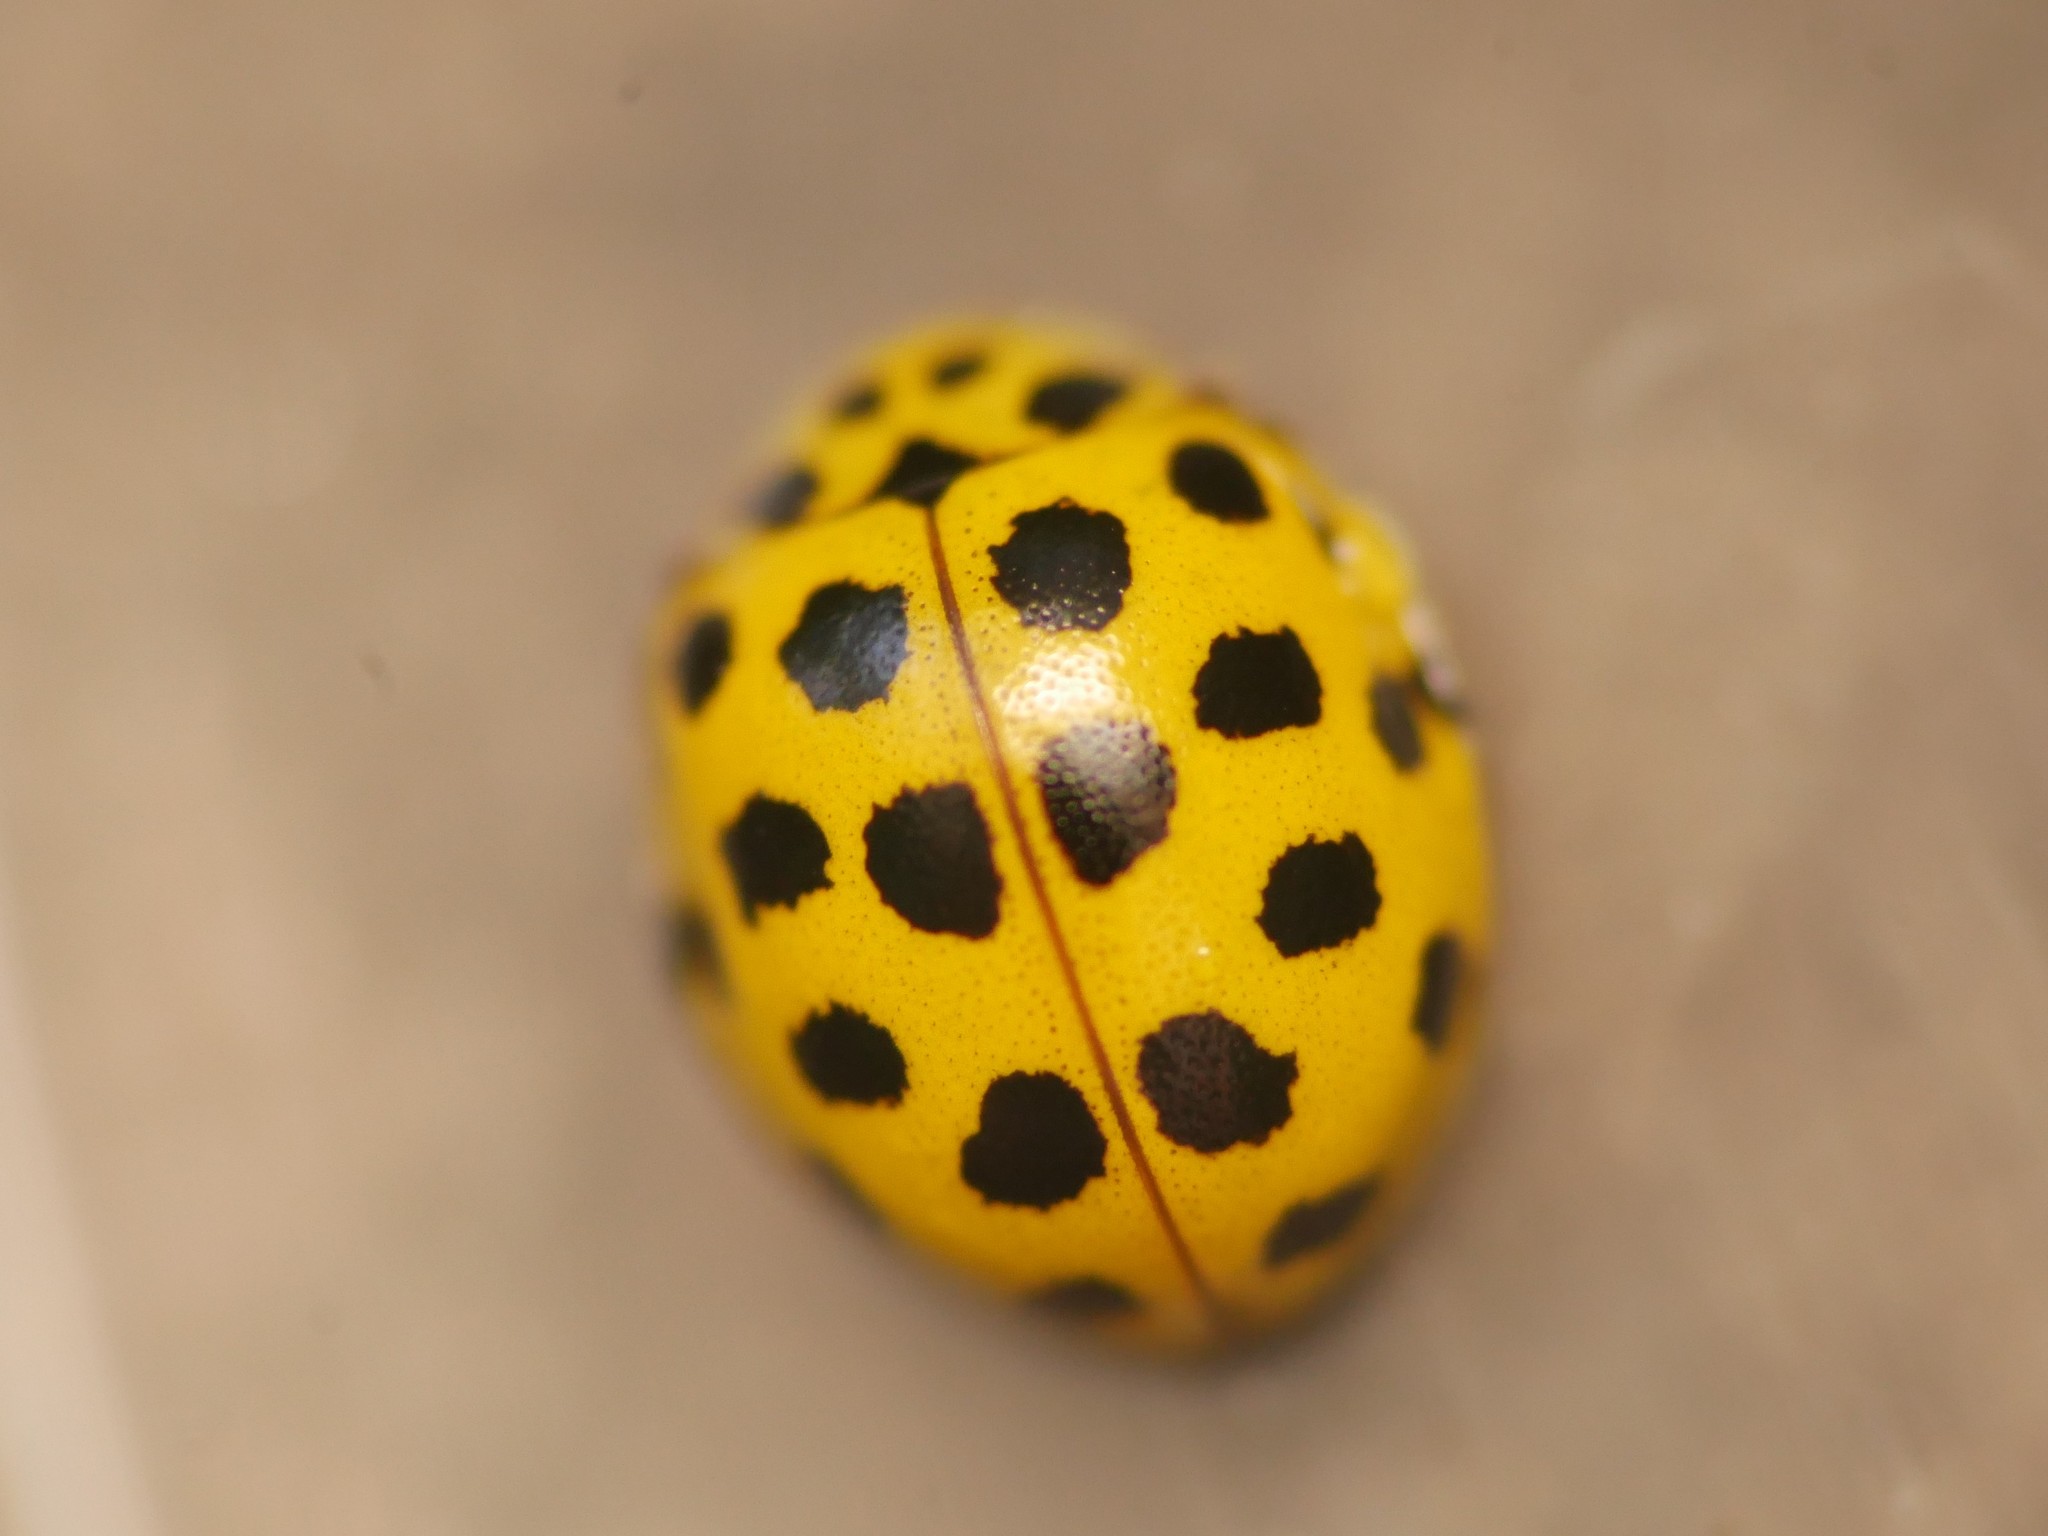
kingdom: Animalia
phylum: Arthropoda
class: Insecta
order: Coleoptera
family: Coccinellidae
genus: Psyllobora
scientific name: Psyllobora vigintiduopunctata
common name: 22-spot ladybird
